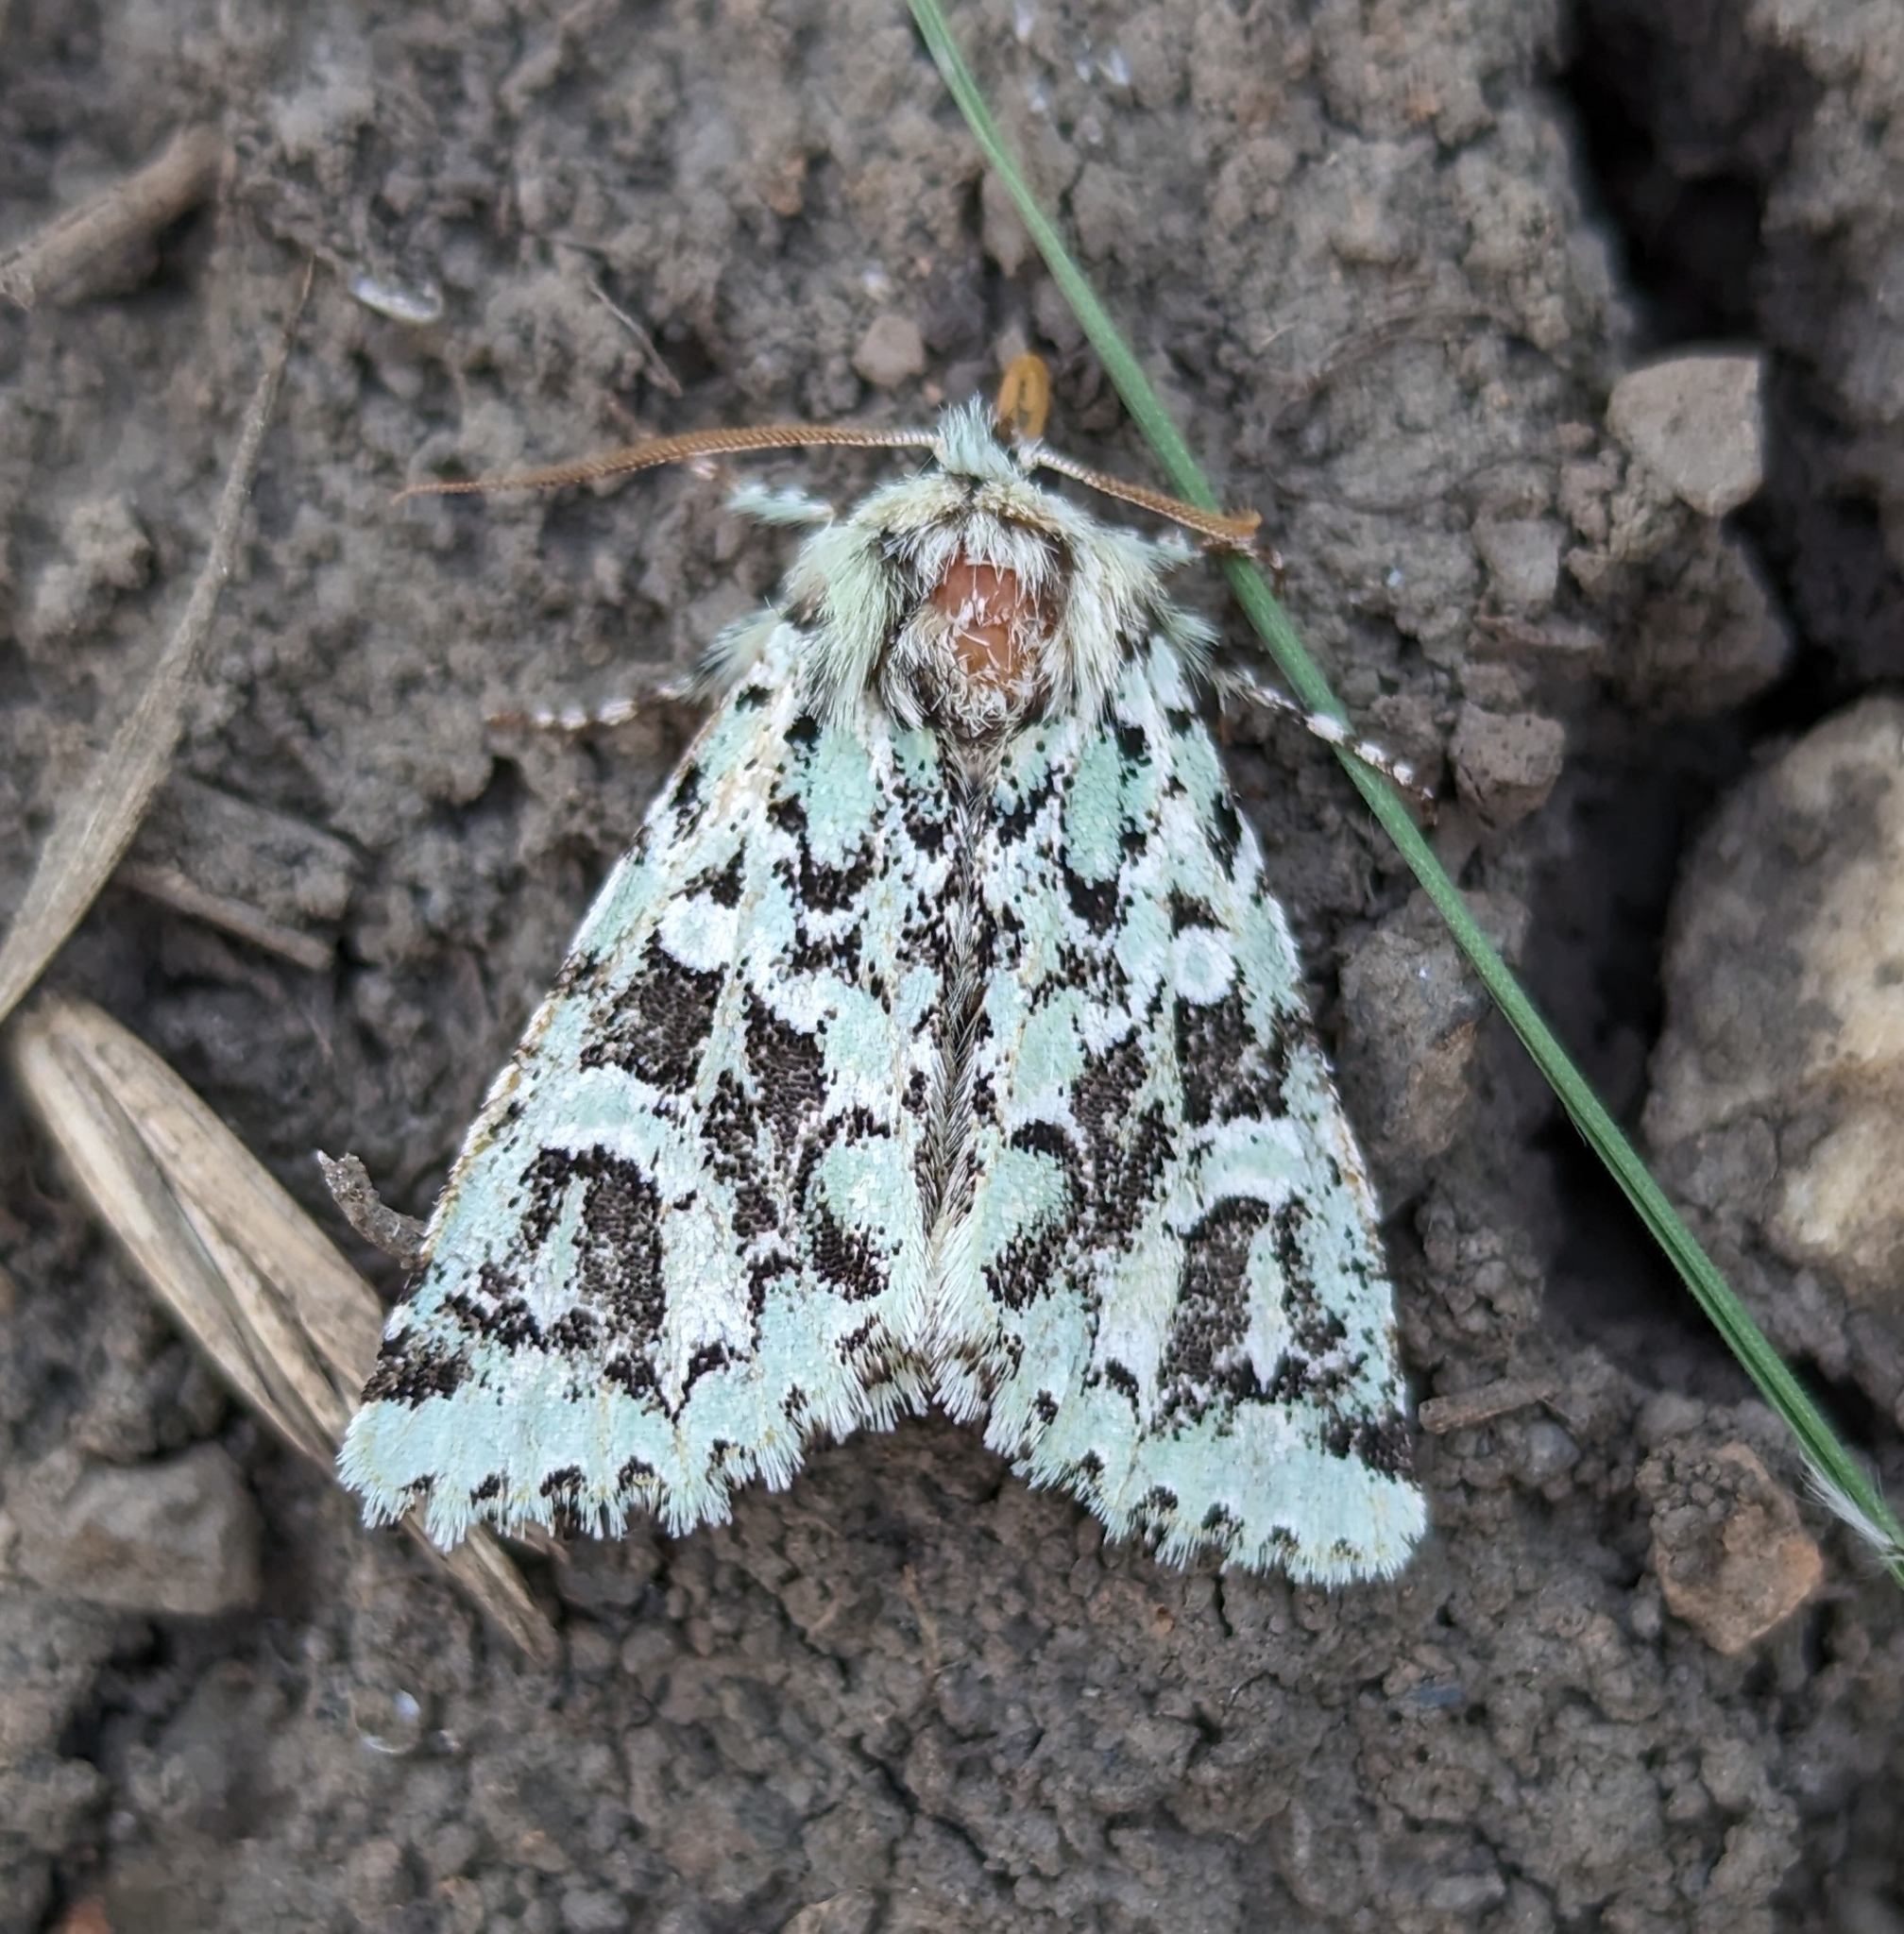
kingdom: Animalia
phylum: Arthropoda
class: Insecta
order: Lepidoptera
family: Noctuidae
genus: Feralia
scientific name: Feralia comstocki
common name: Comstock's sallow
